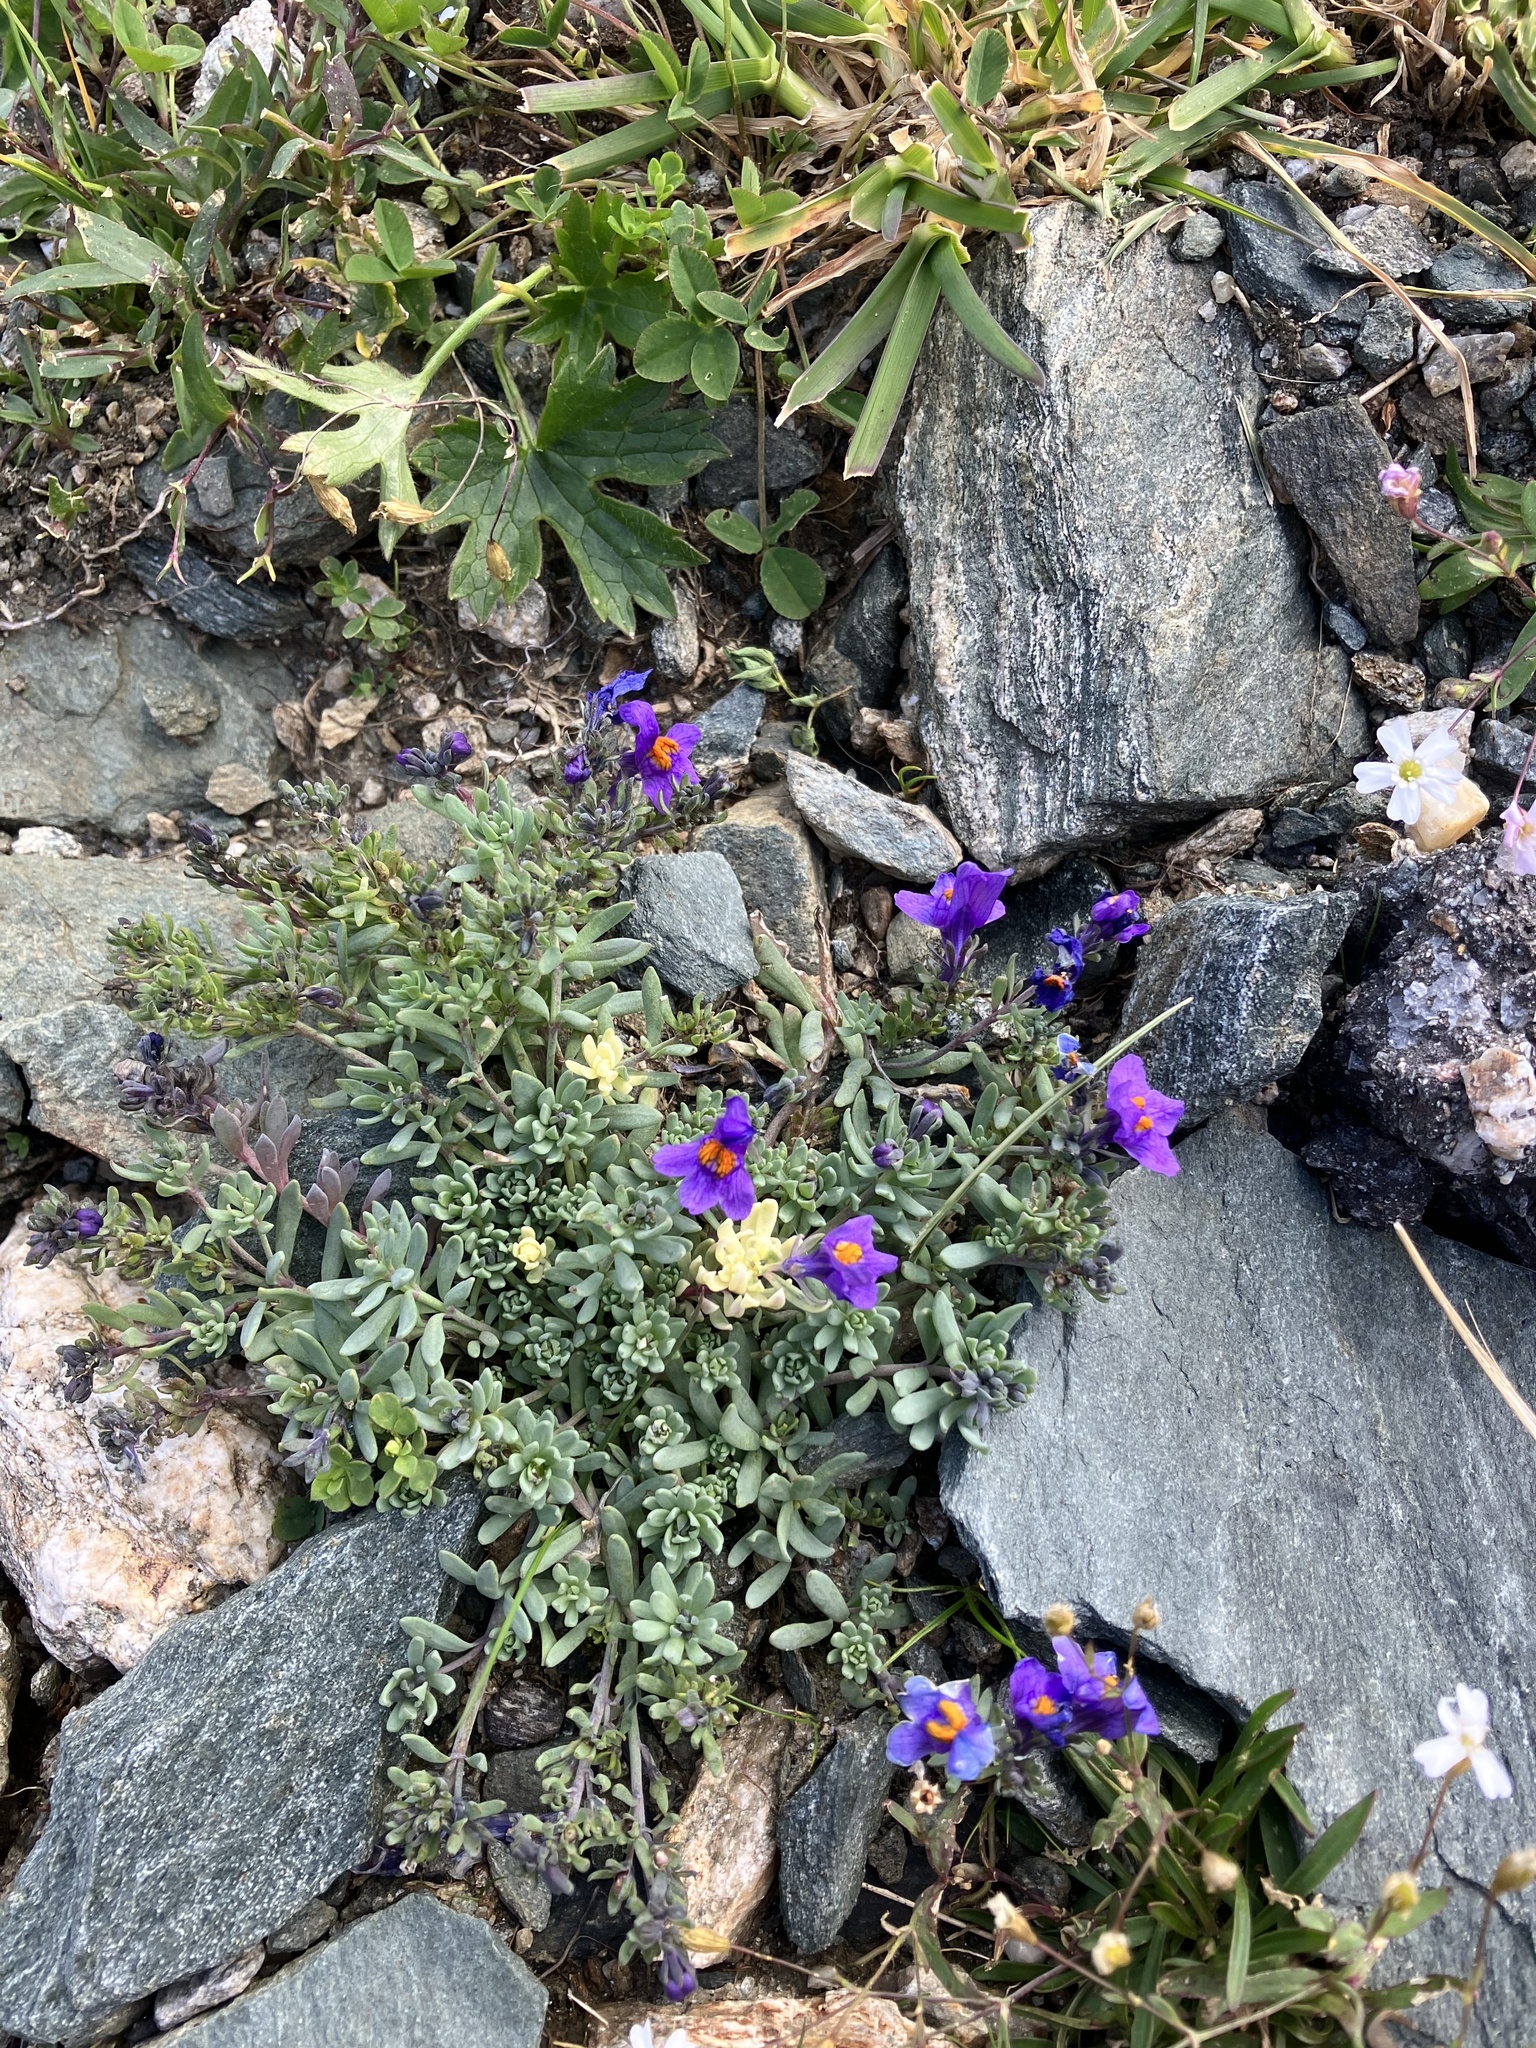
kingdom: Plantae
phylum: Tracheophyta
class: Magnoliopsida
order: Lamiales
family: Plantaginaceae
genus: Linaria
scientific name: Linaria alpina
